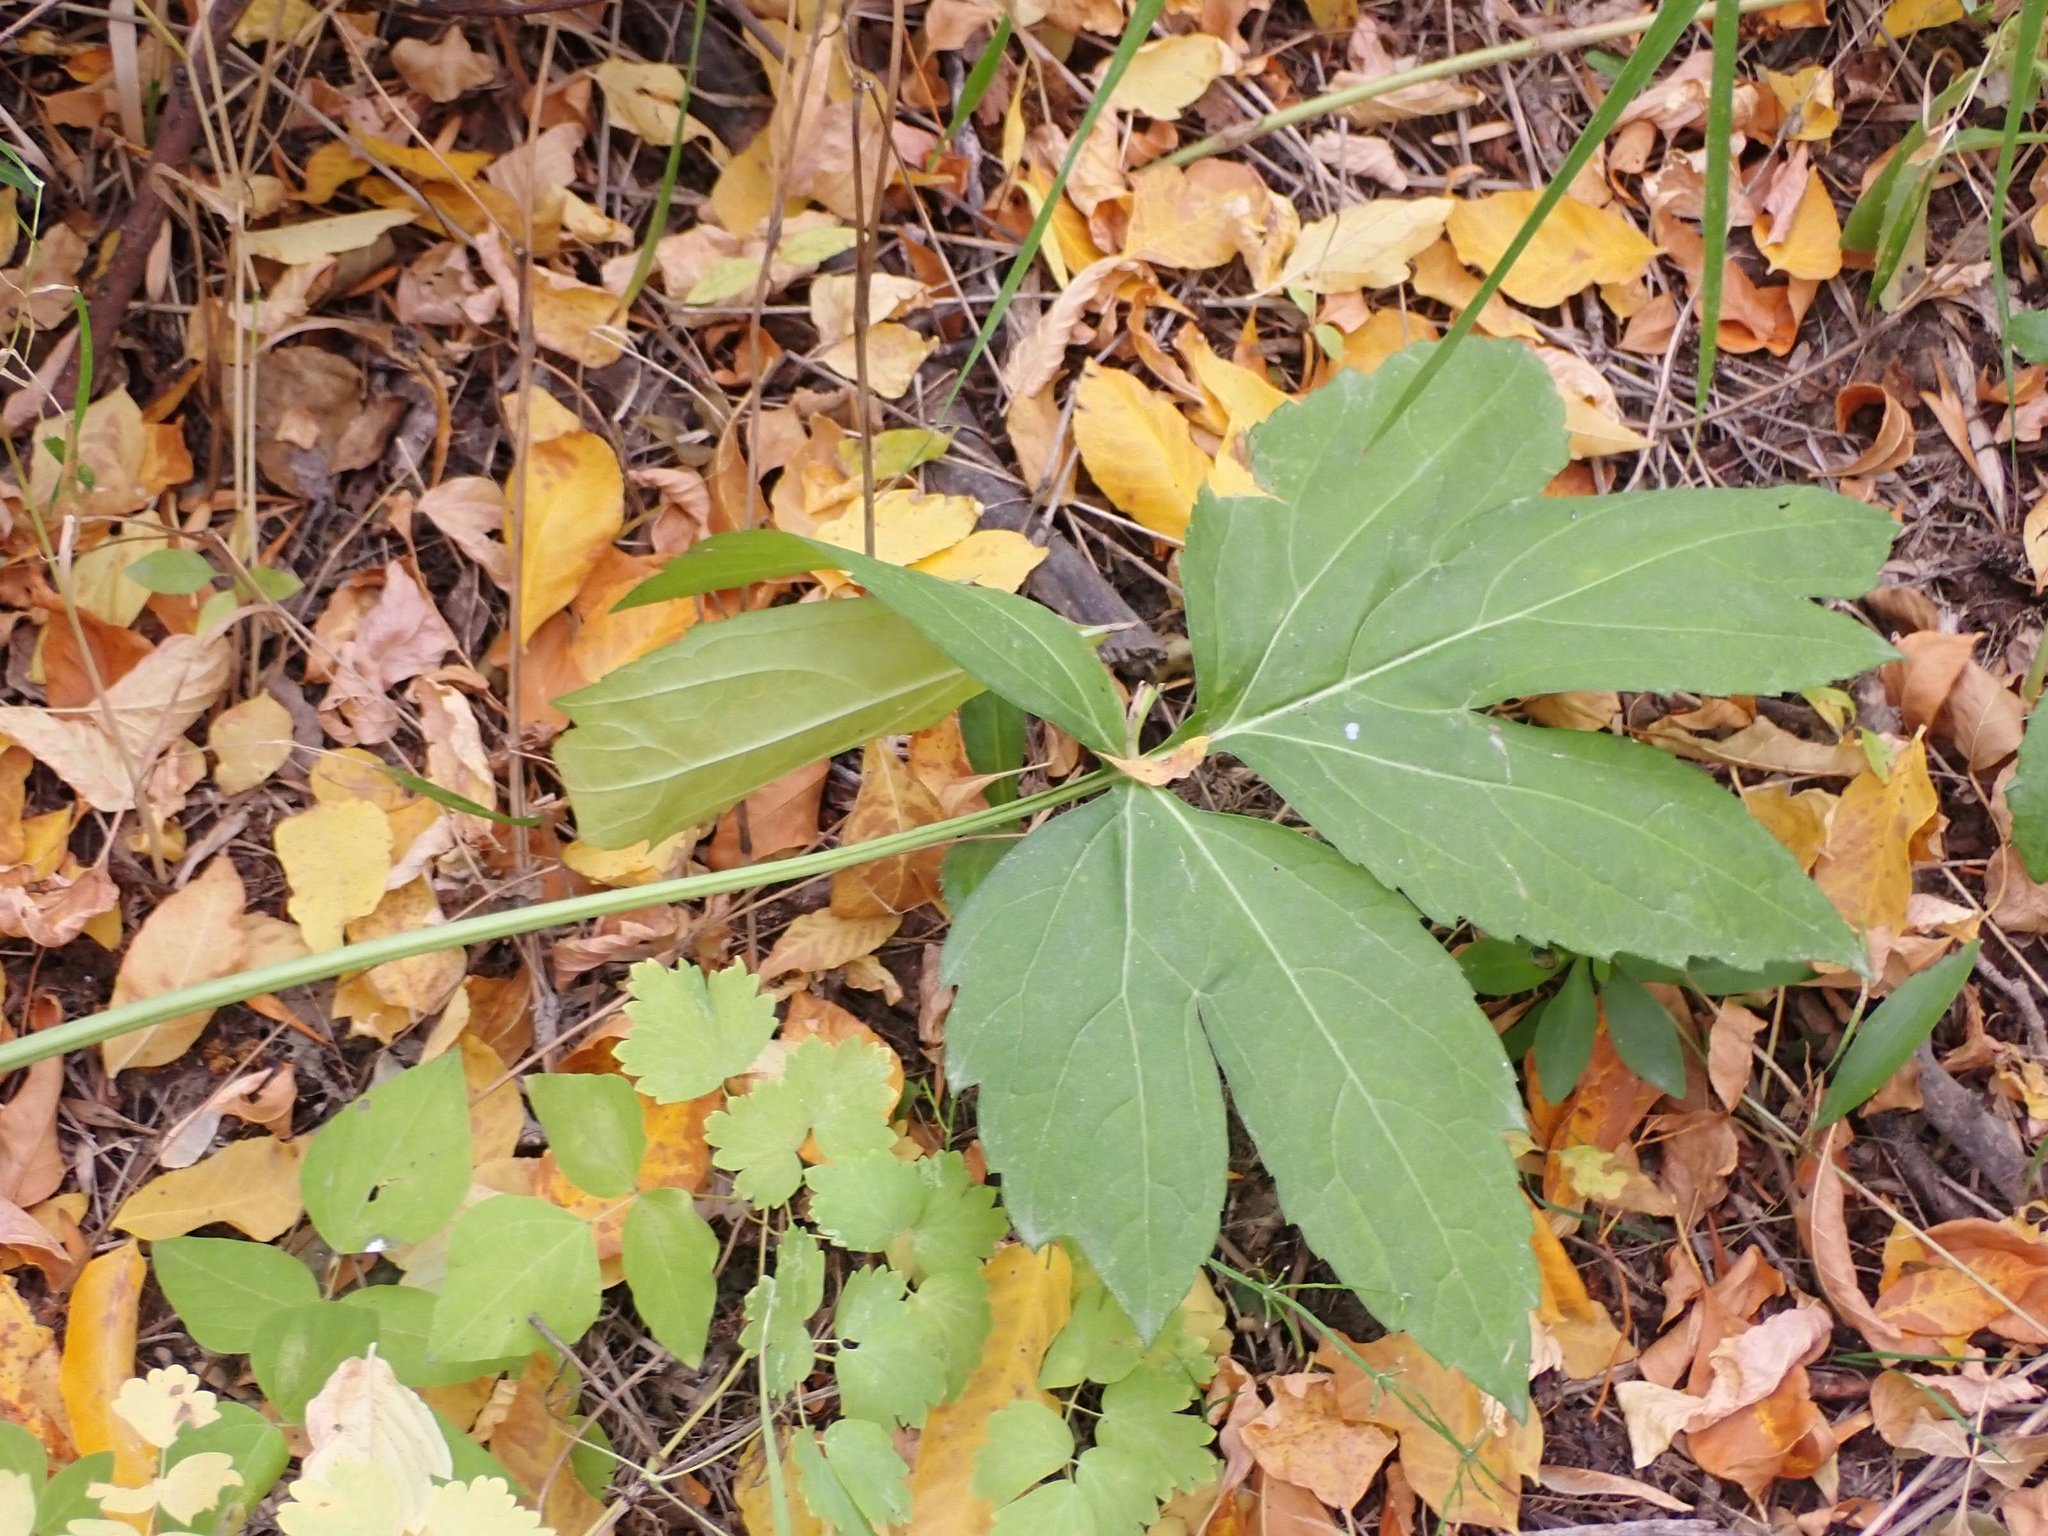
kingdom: Plantae
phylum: Tracheophyta
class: Magnoliopsida
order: Asterales
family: Asteraceae
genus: Rudbeckia
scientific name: Rudbeckia laciniata
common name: Coneflower
